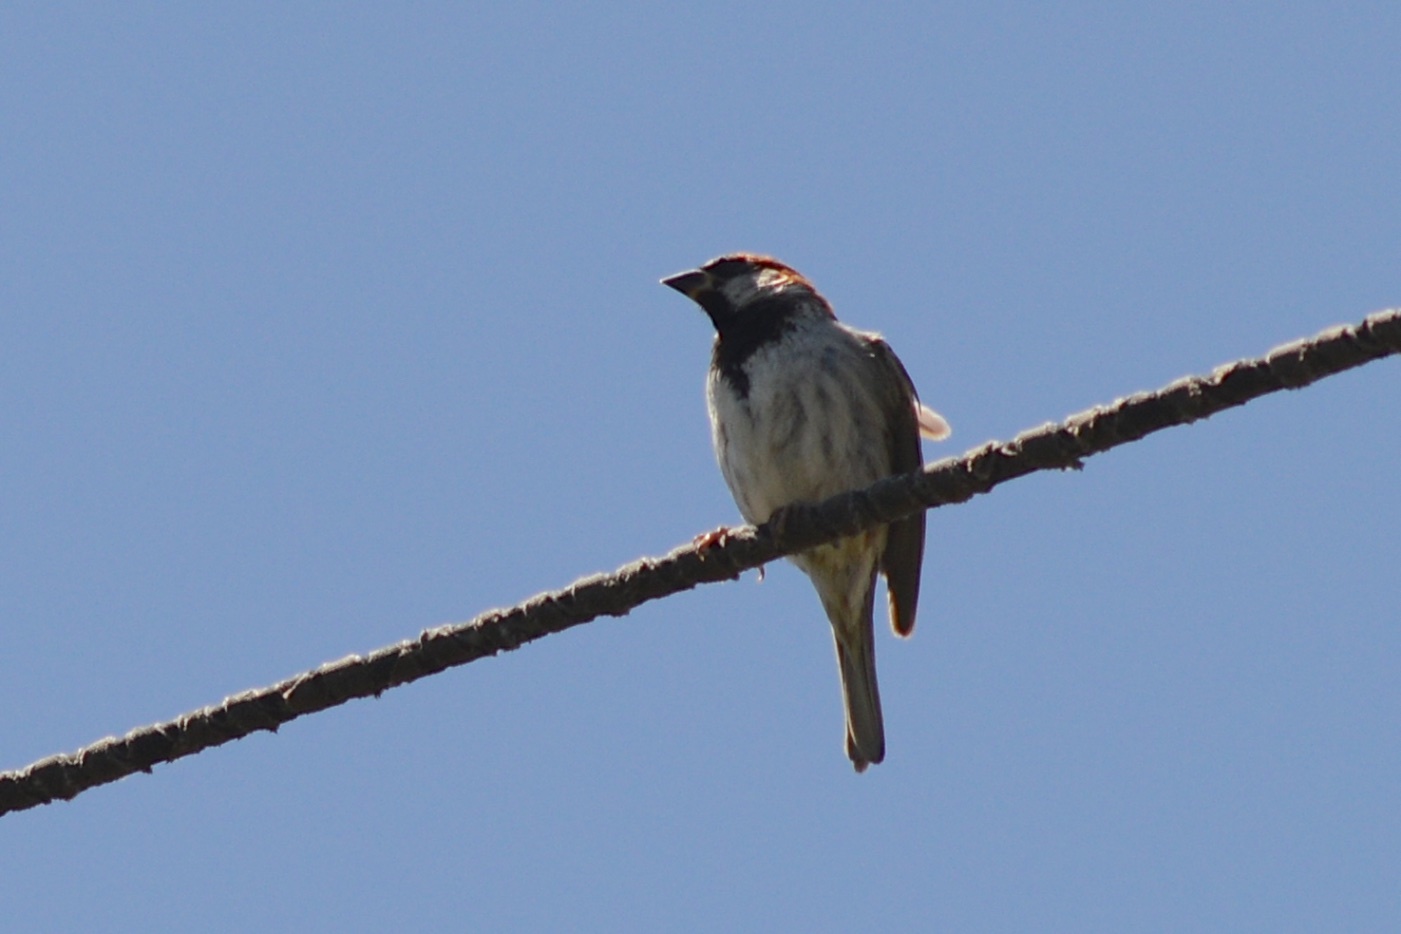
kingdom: Animalia
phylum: Chordata
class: Aves
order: Passeriformes
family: Passeridae
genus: Passer
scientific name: Passer domesticus
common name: House sparrow
